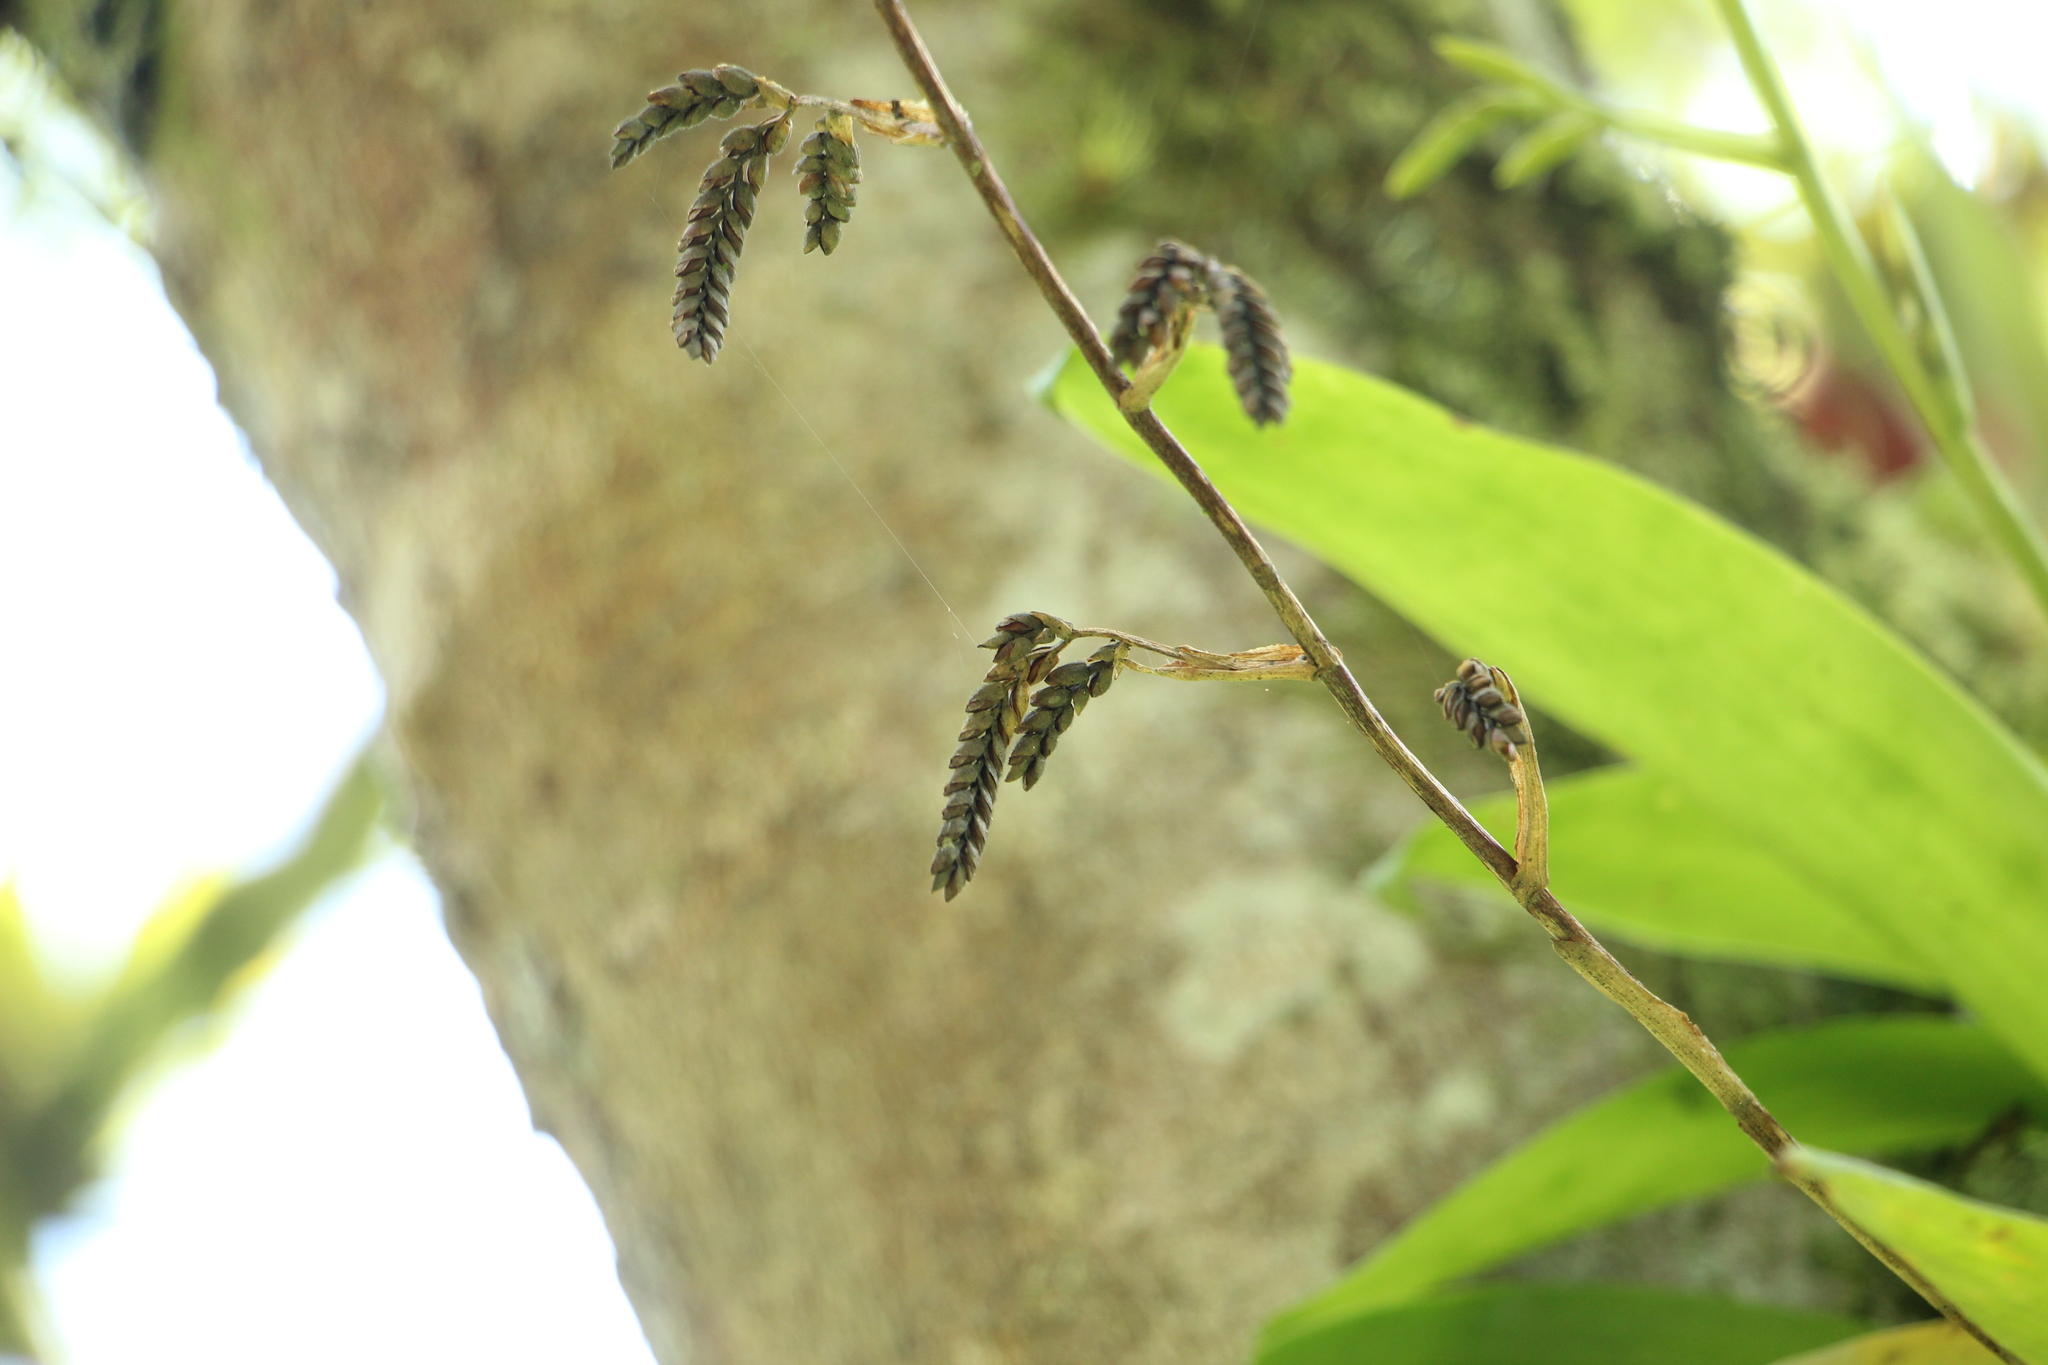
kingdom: Plantae
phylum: Tracheophyta
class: Liliopsida
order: Poales
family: Bromeliaceae
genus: Racinaea
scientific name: Racinaea pectinata
